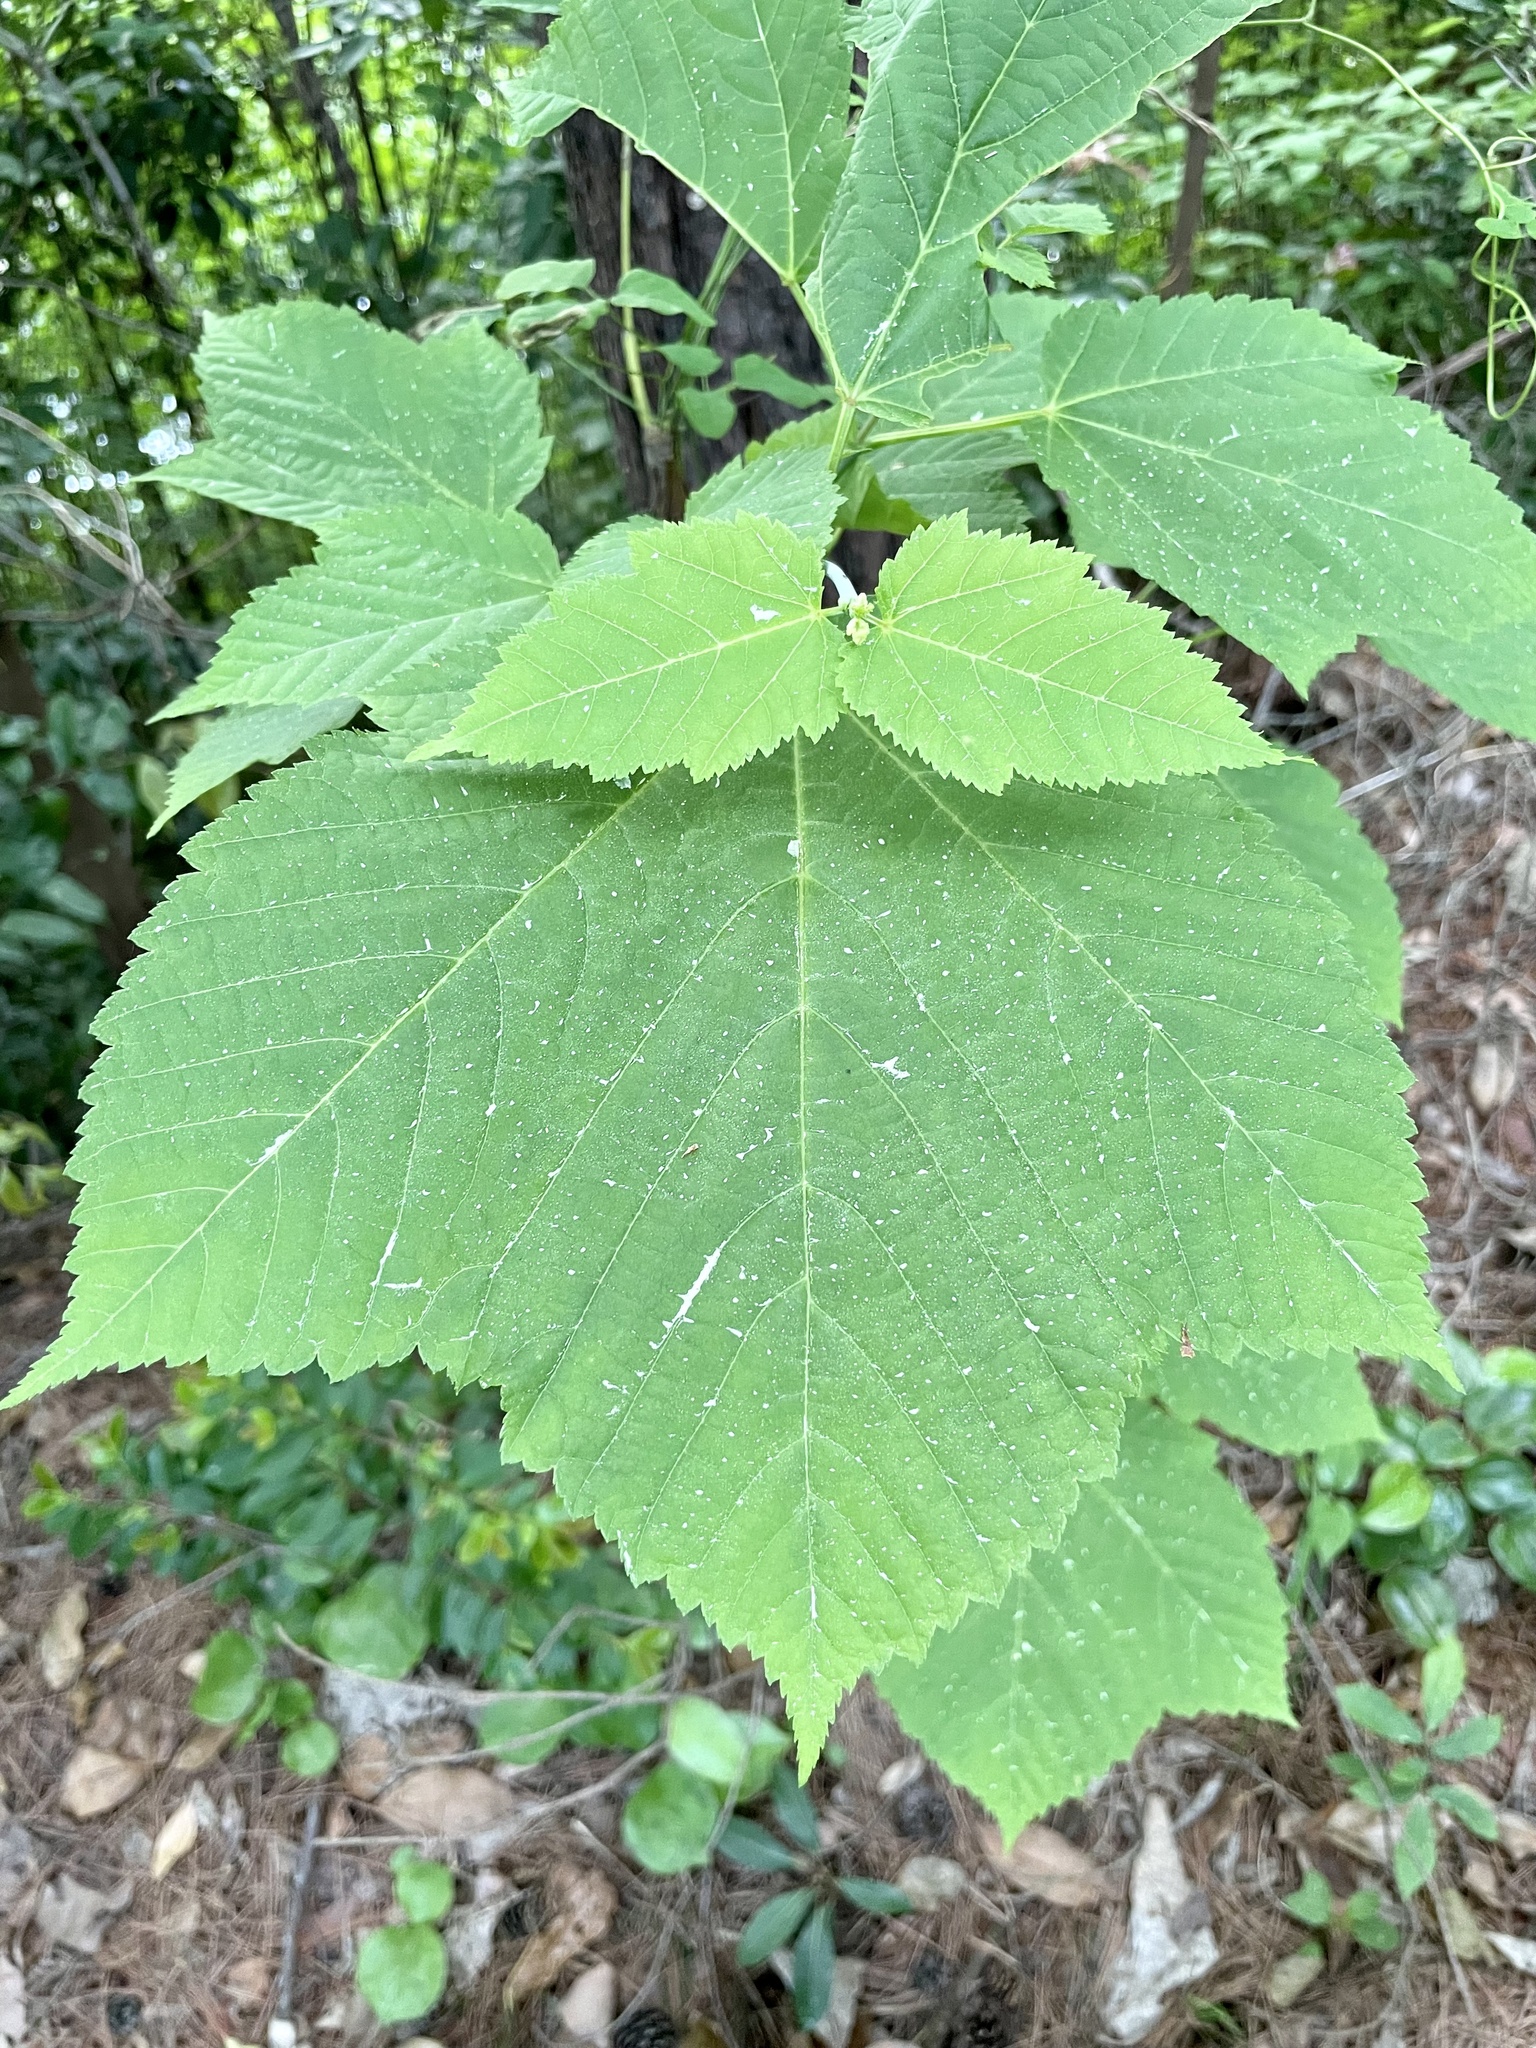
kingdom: Plantae
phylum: Tracheophyta
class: Magnoliopsida
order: Sapindales
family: Sapindaceae
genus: Acer
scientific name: Acer rufinerve
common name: Red veined maple
